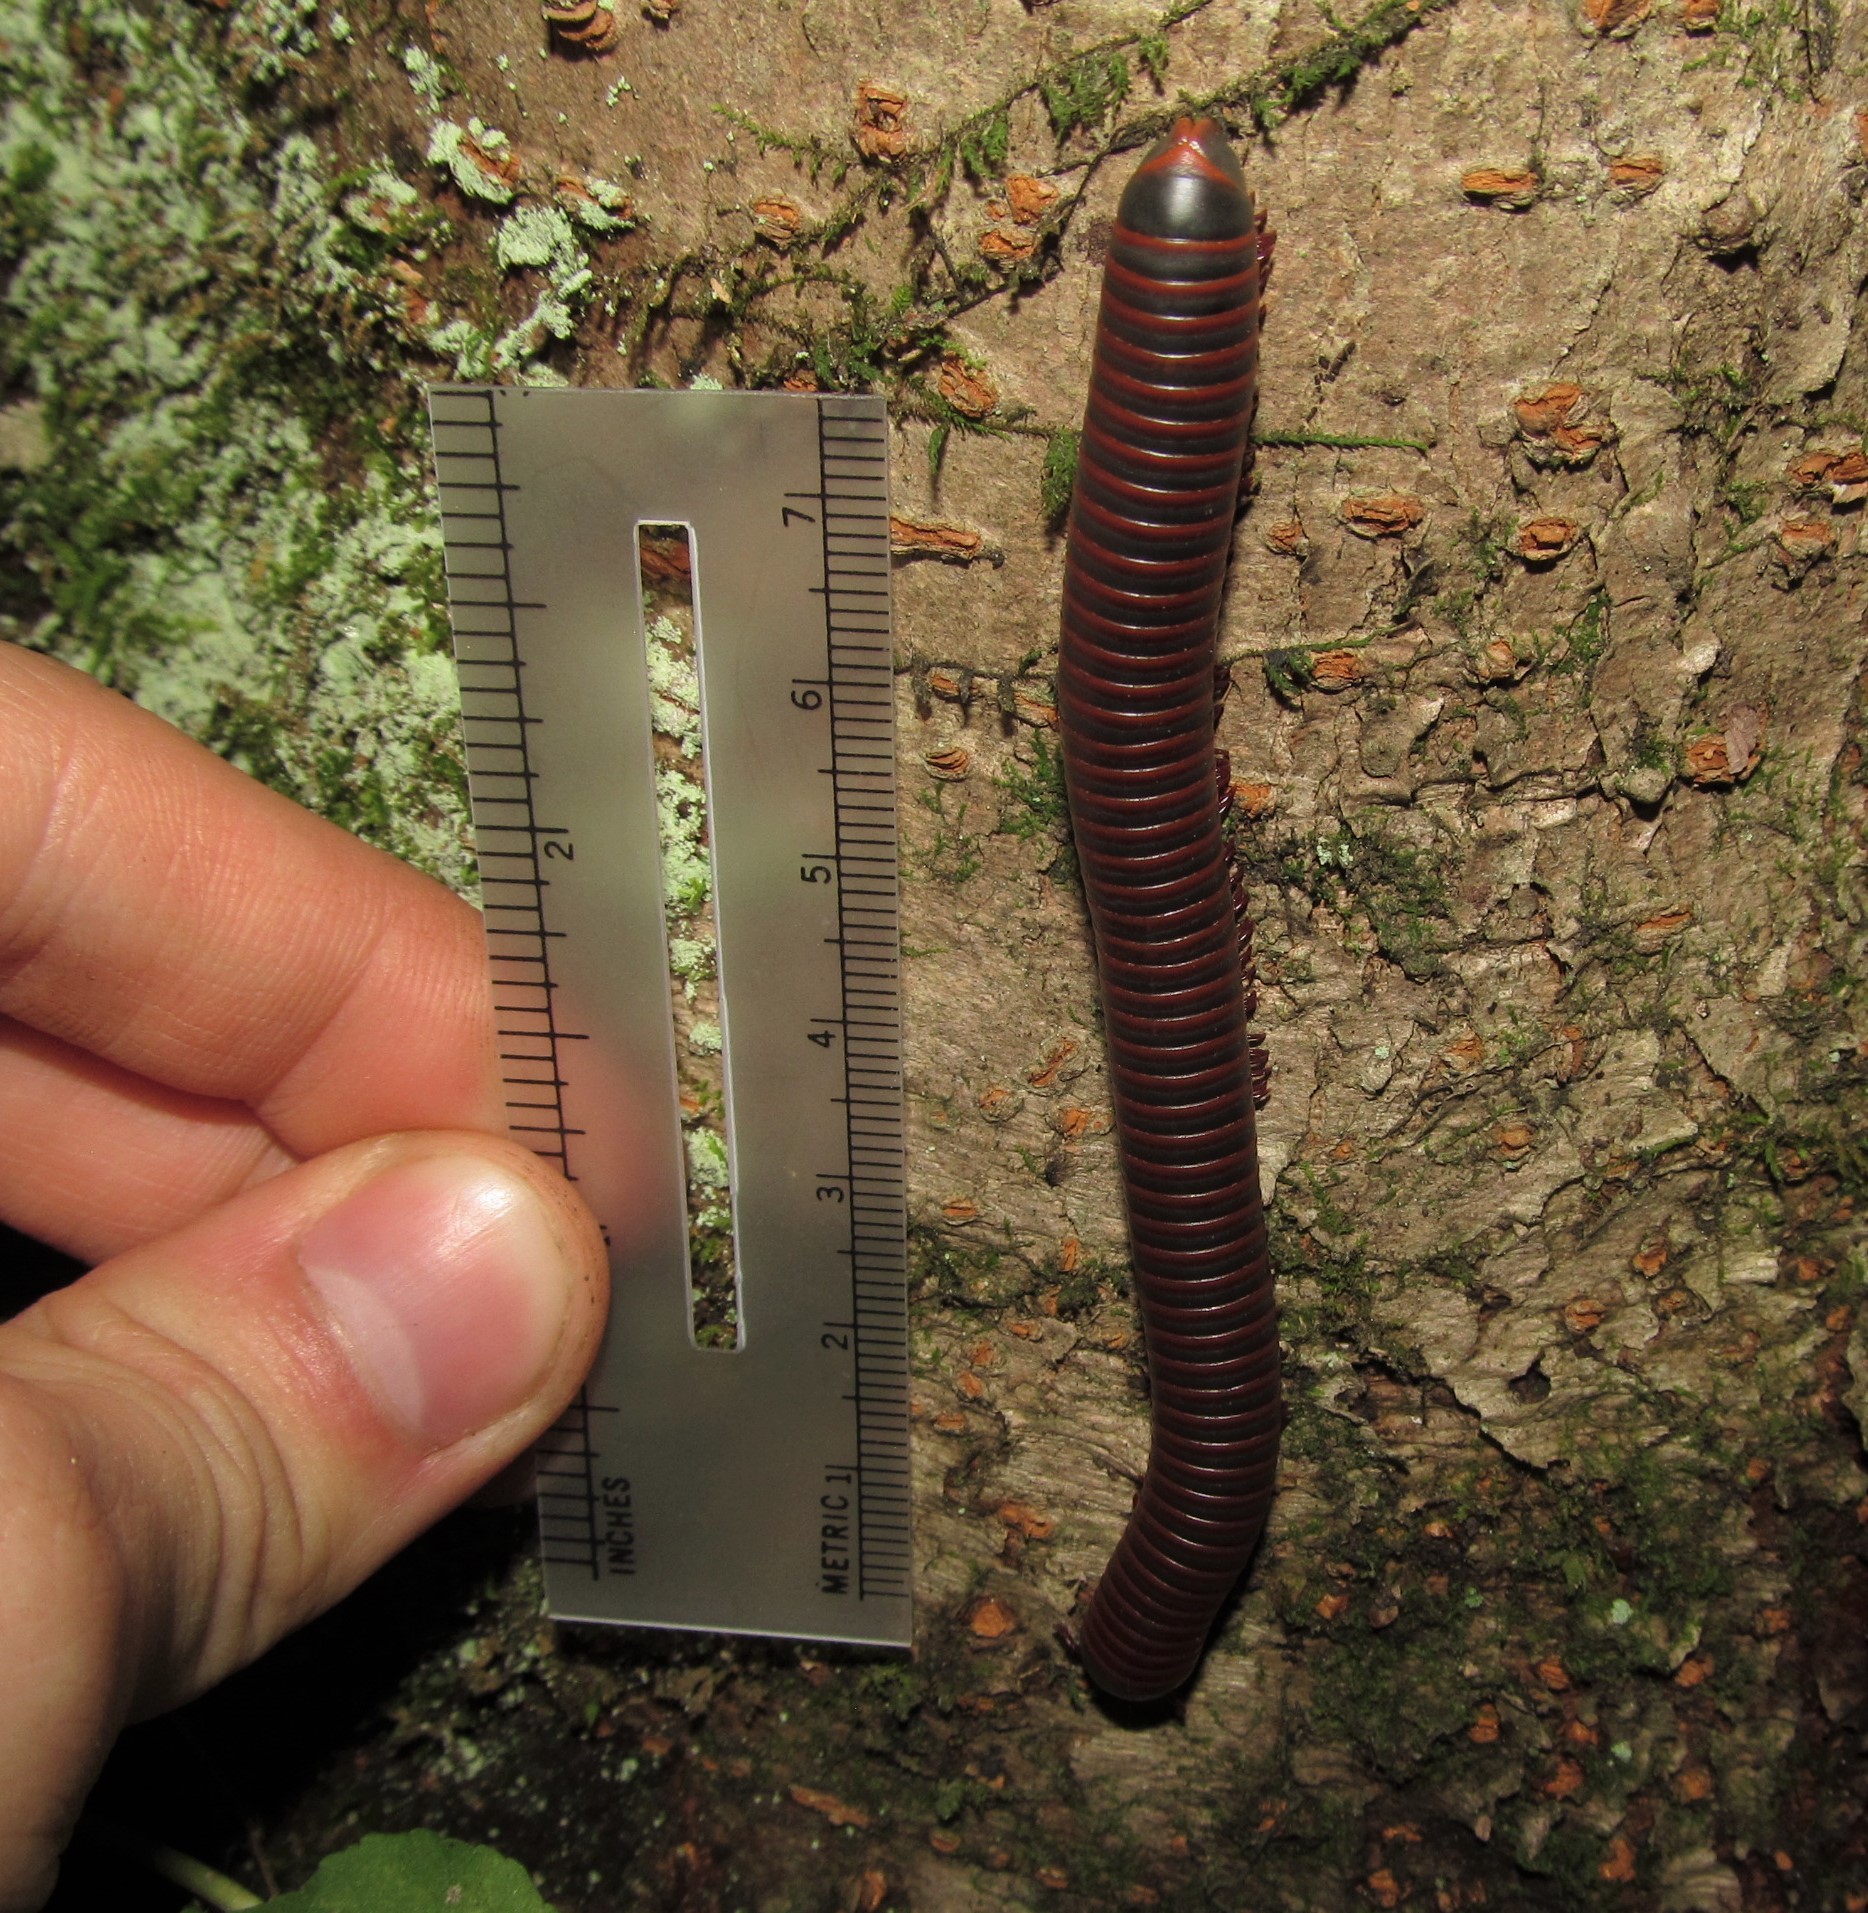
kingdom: Animalia
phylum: Arthropoda
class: Diplopoda
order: Spirobolida
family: Spirobolidae
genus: Narceus
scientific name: Narceus
